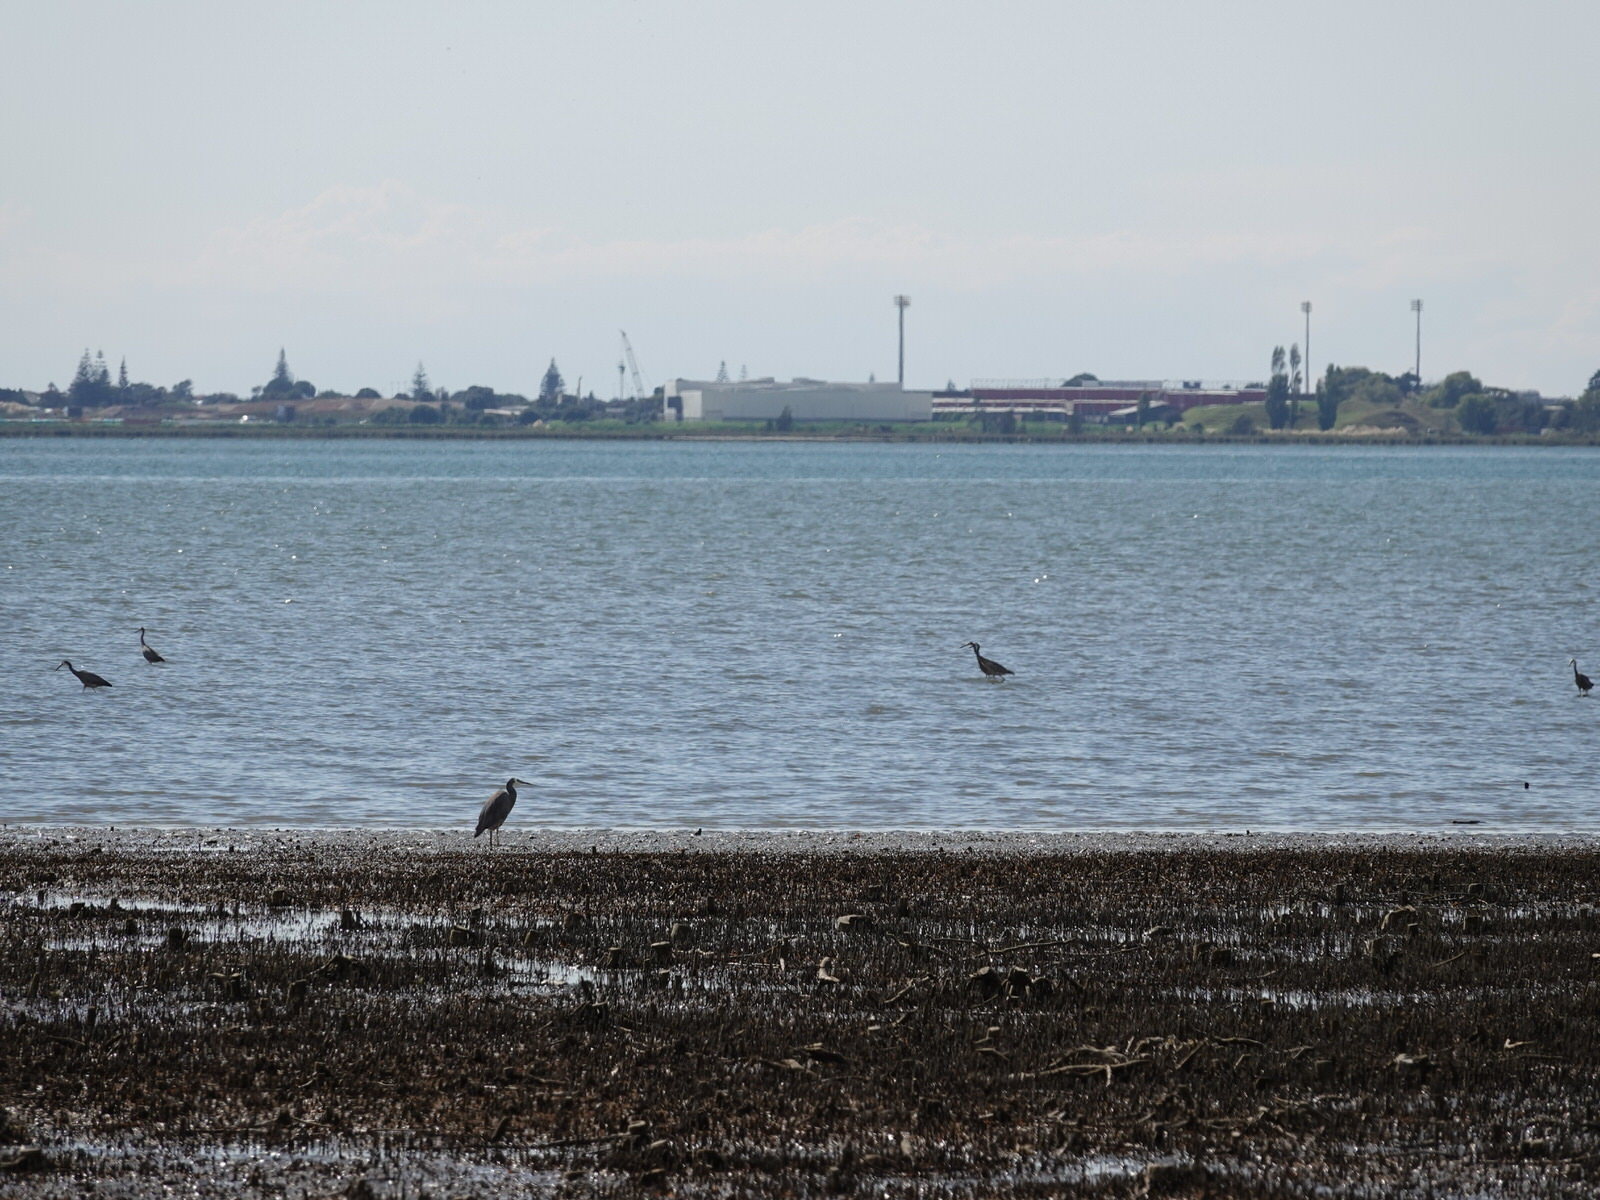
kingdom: Animalia
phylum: Chordata
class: Aves
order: Pelecaniformes
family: Ardeidae
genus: Egretta
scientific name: Egretta novaehollandiae
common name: White-faced heron
